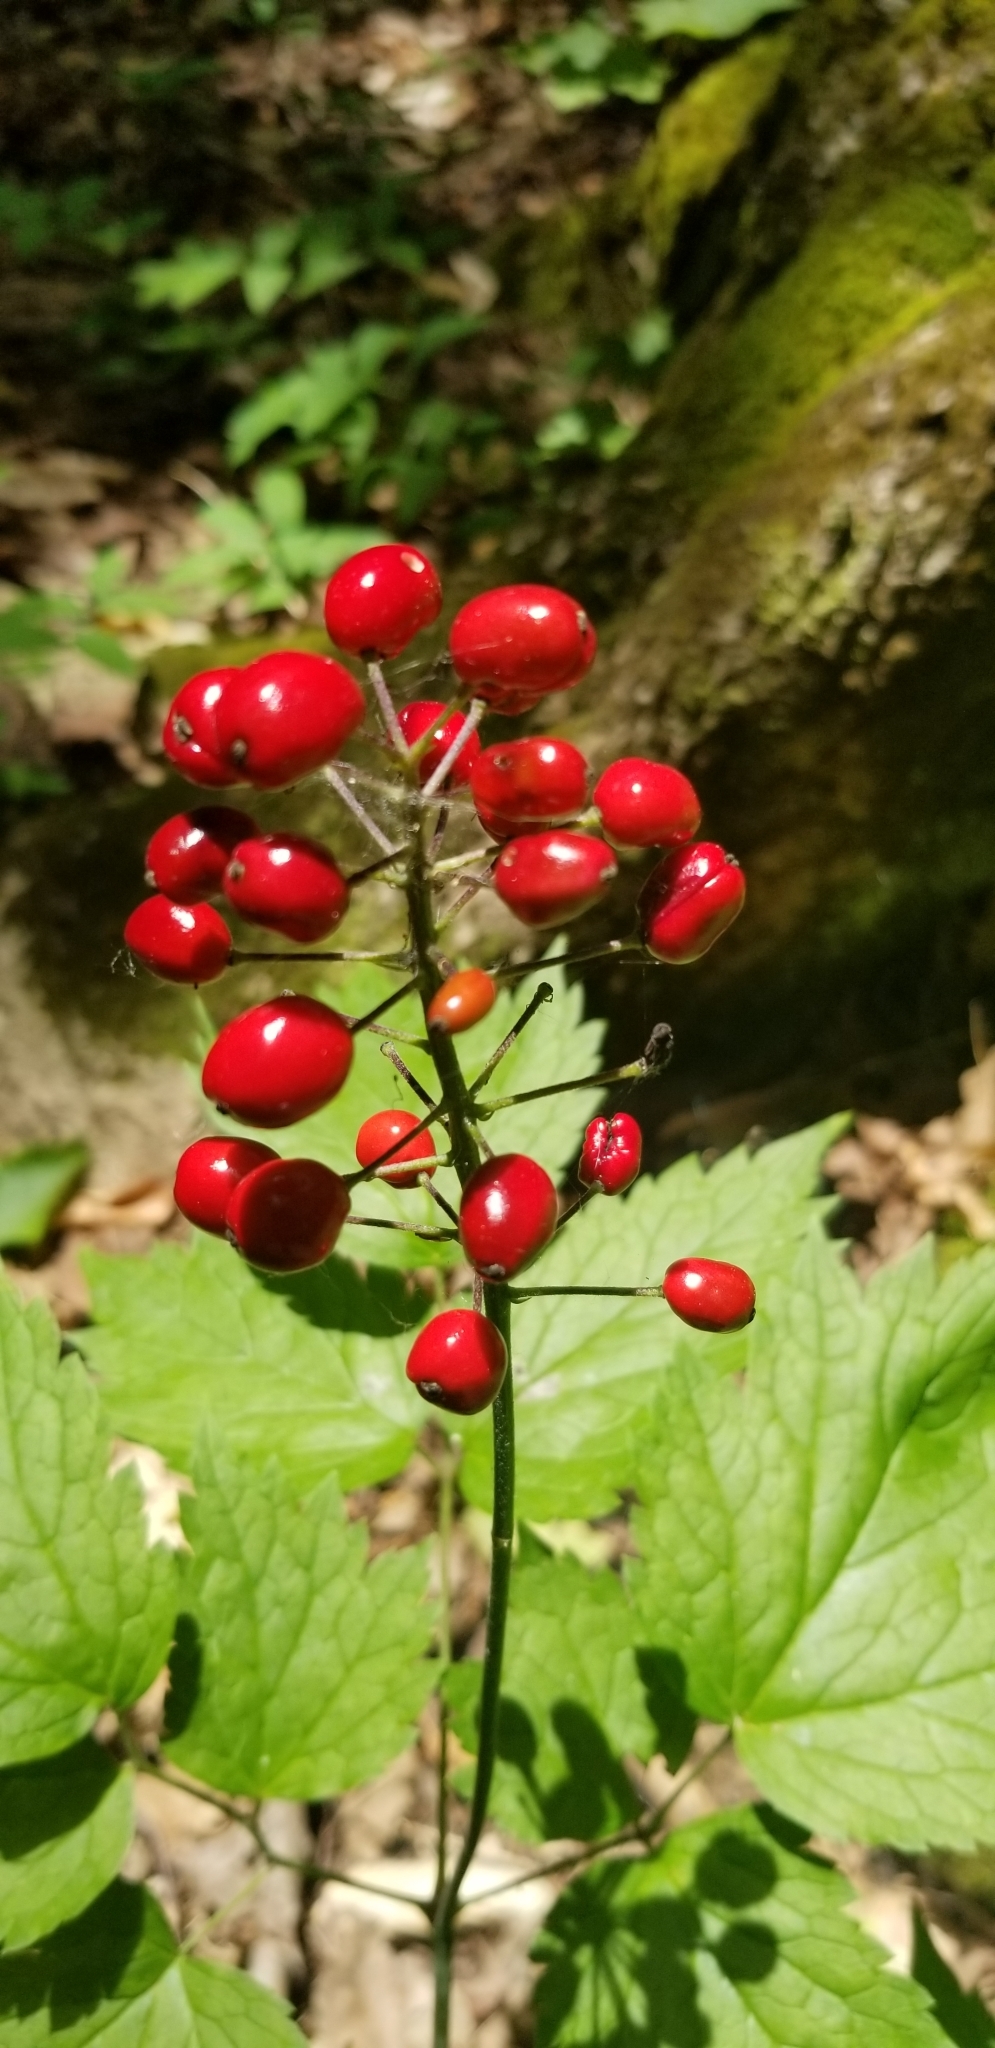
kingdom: Plantae
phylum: Tracheophyta
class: Magnoliopsida
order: Ranunculales
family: Ranunculaceae
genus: Actaea
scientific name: Actaea rubra
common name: Red baneberry
